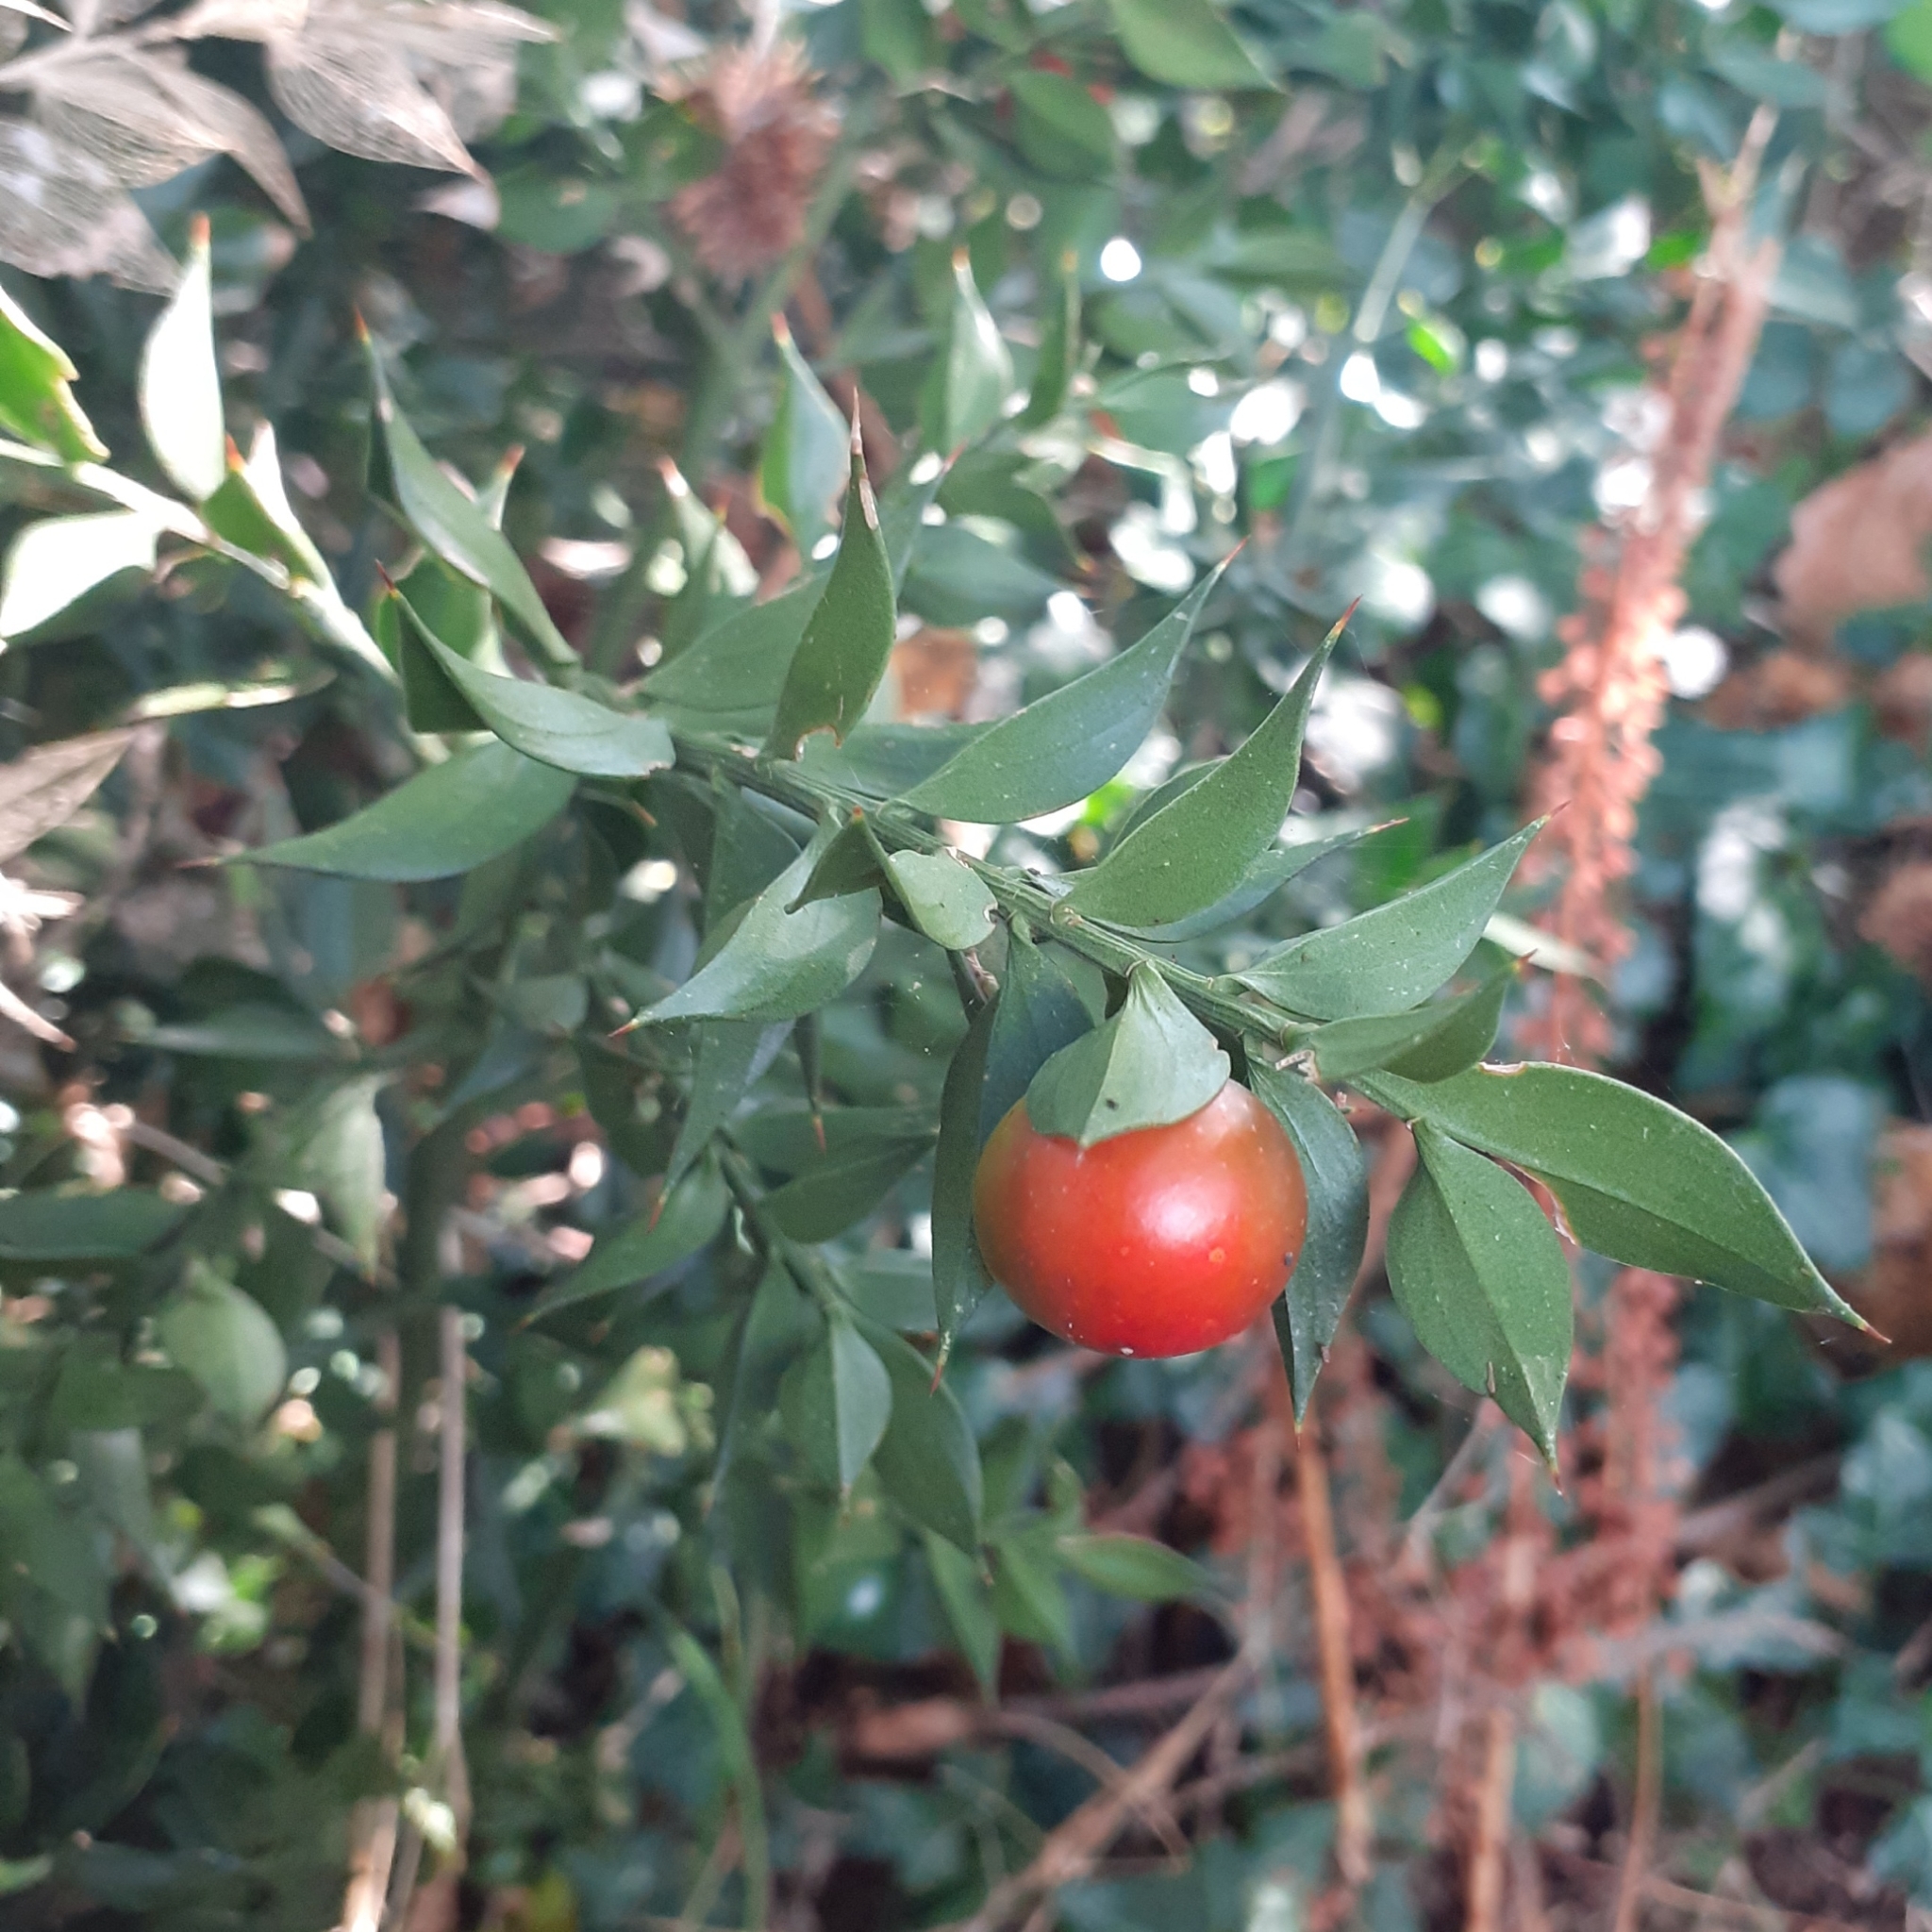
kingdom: Plantae
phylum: Tracheophyta
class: Liliopsida
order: Asparagales
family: Asparagaceae
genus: Ruscus
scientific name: Ruscus aculeatus
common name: Butcher's-broom
